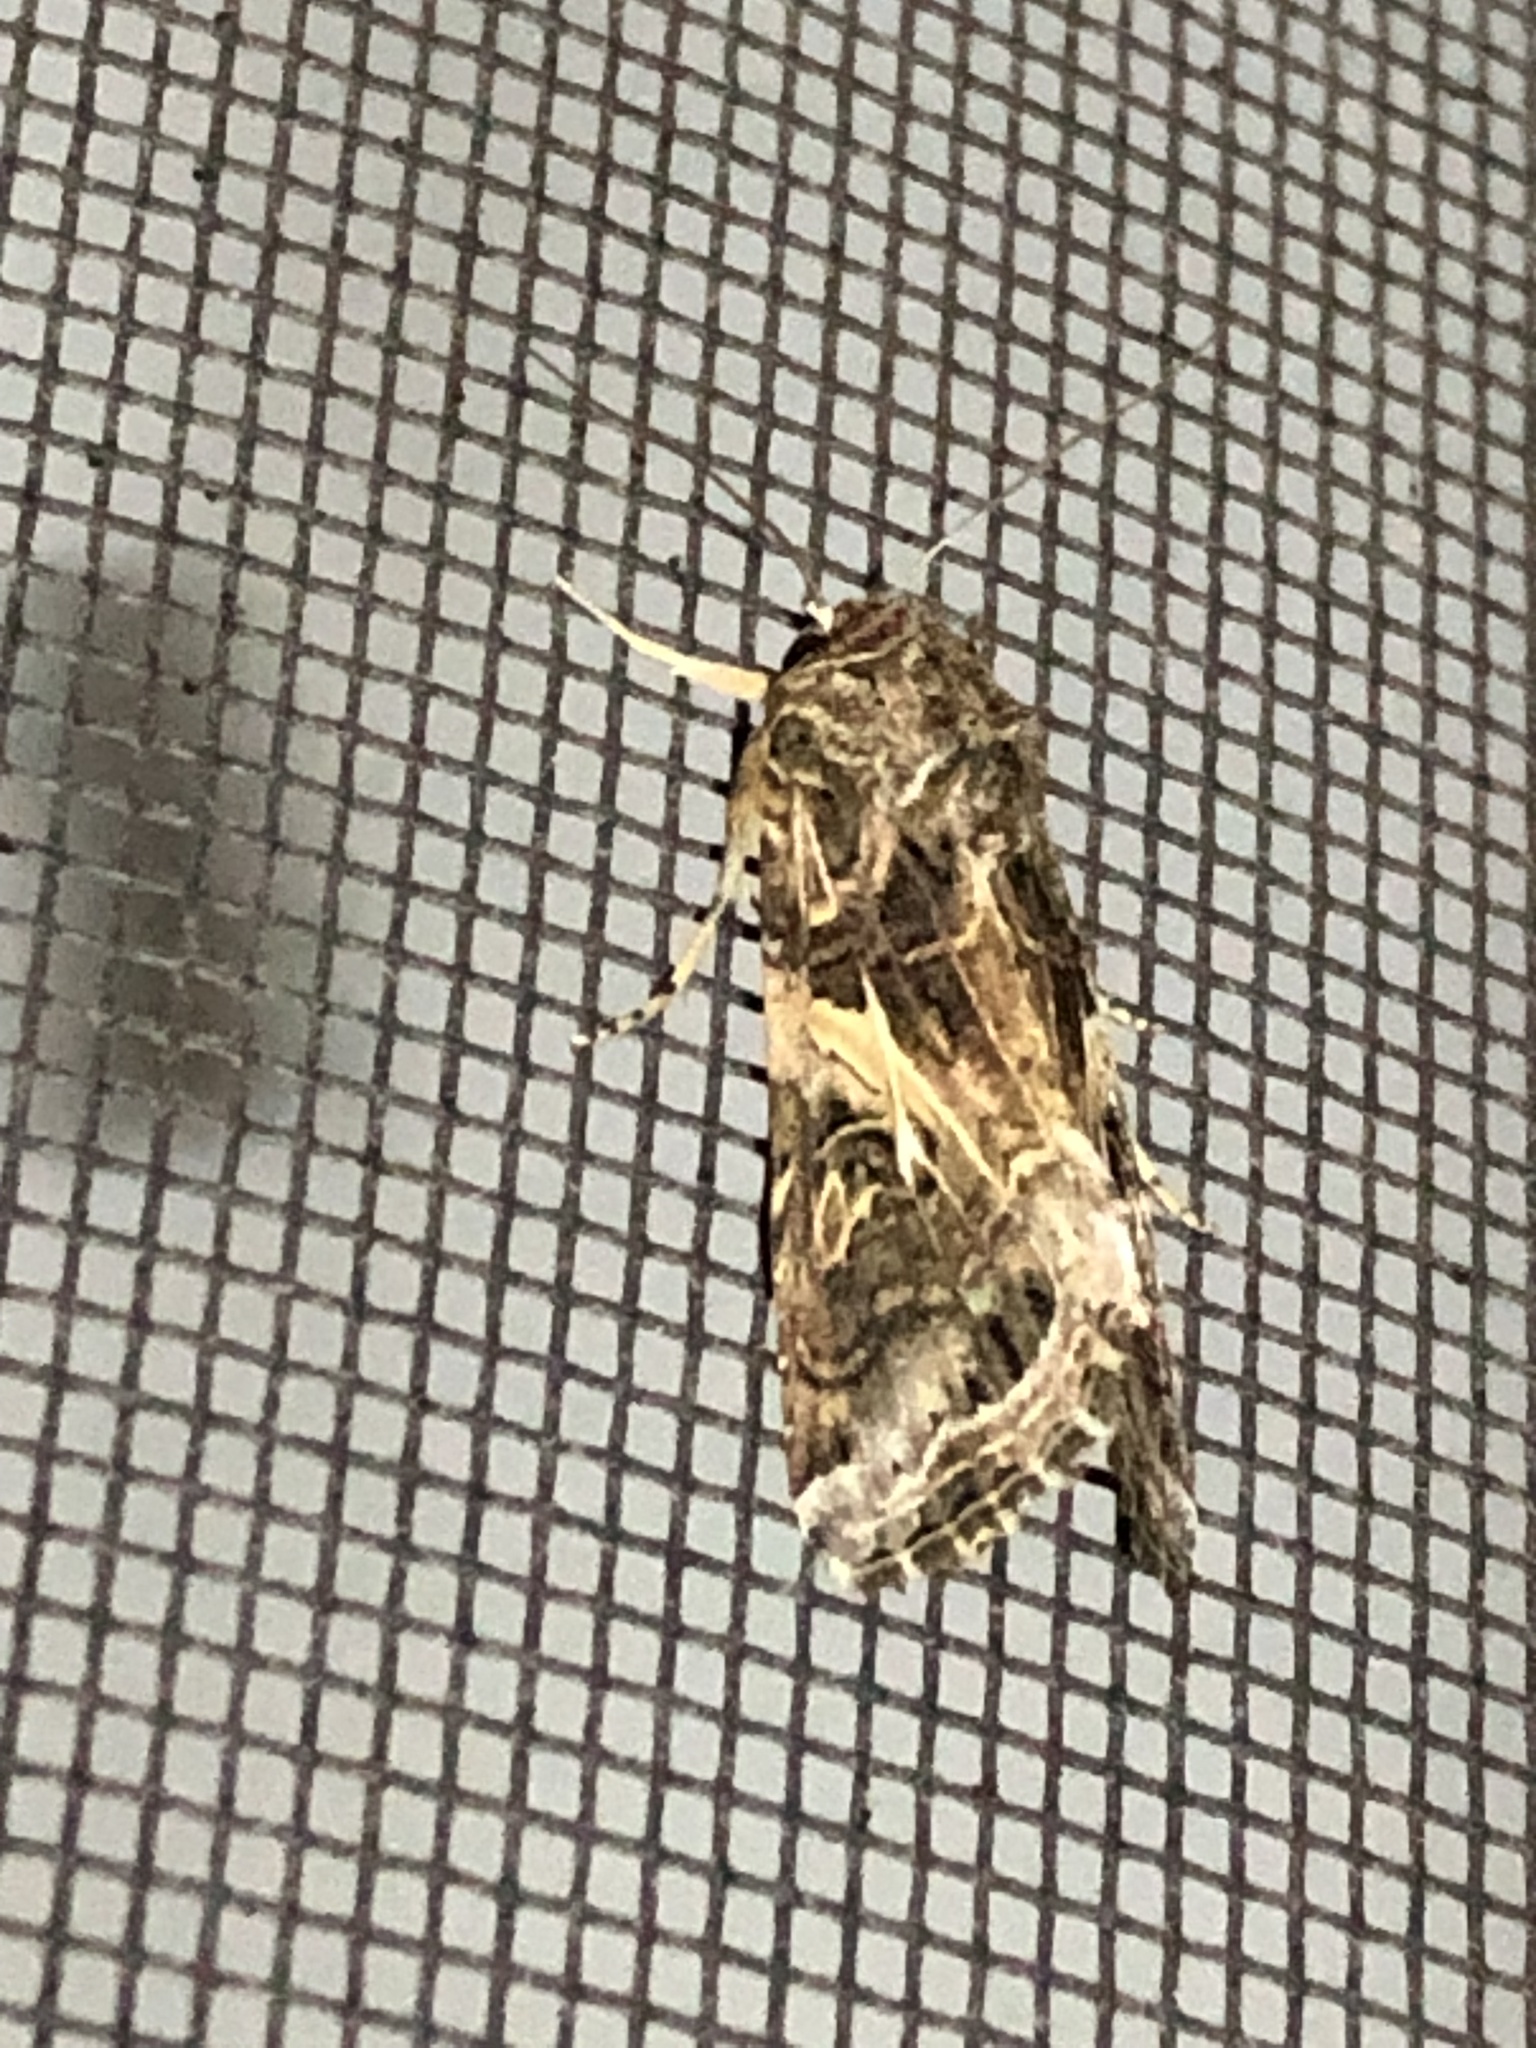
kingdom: Animalia
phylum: Arthropoda
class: Insecta
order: Lepidoptera
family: Noctuidae
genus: Spodoptera
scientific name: Spodoptera ornithogalli
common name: Yellow-striped armyworm
